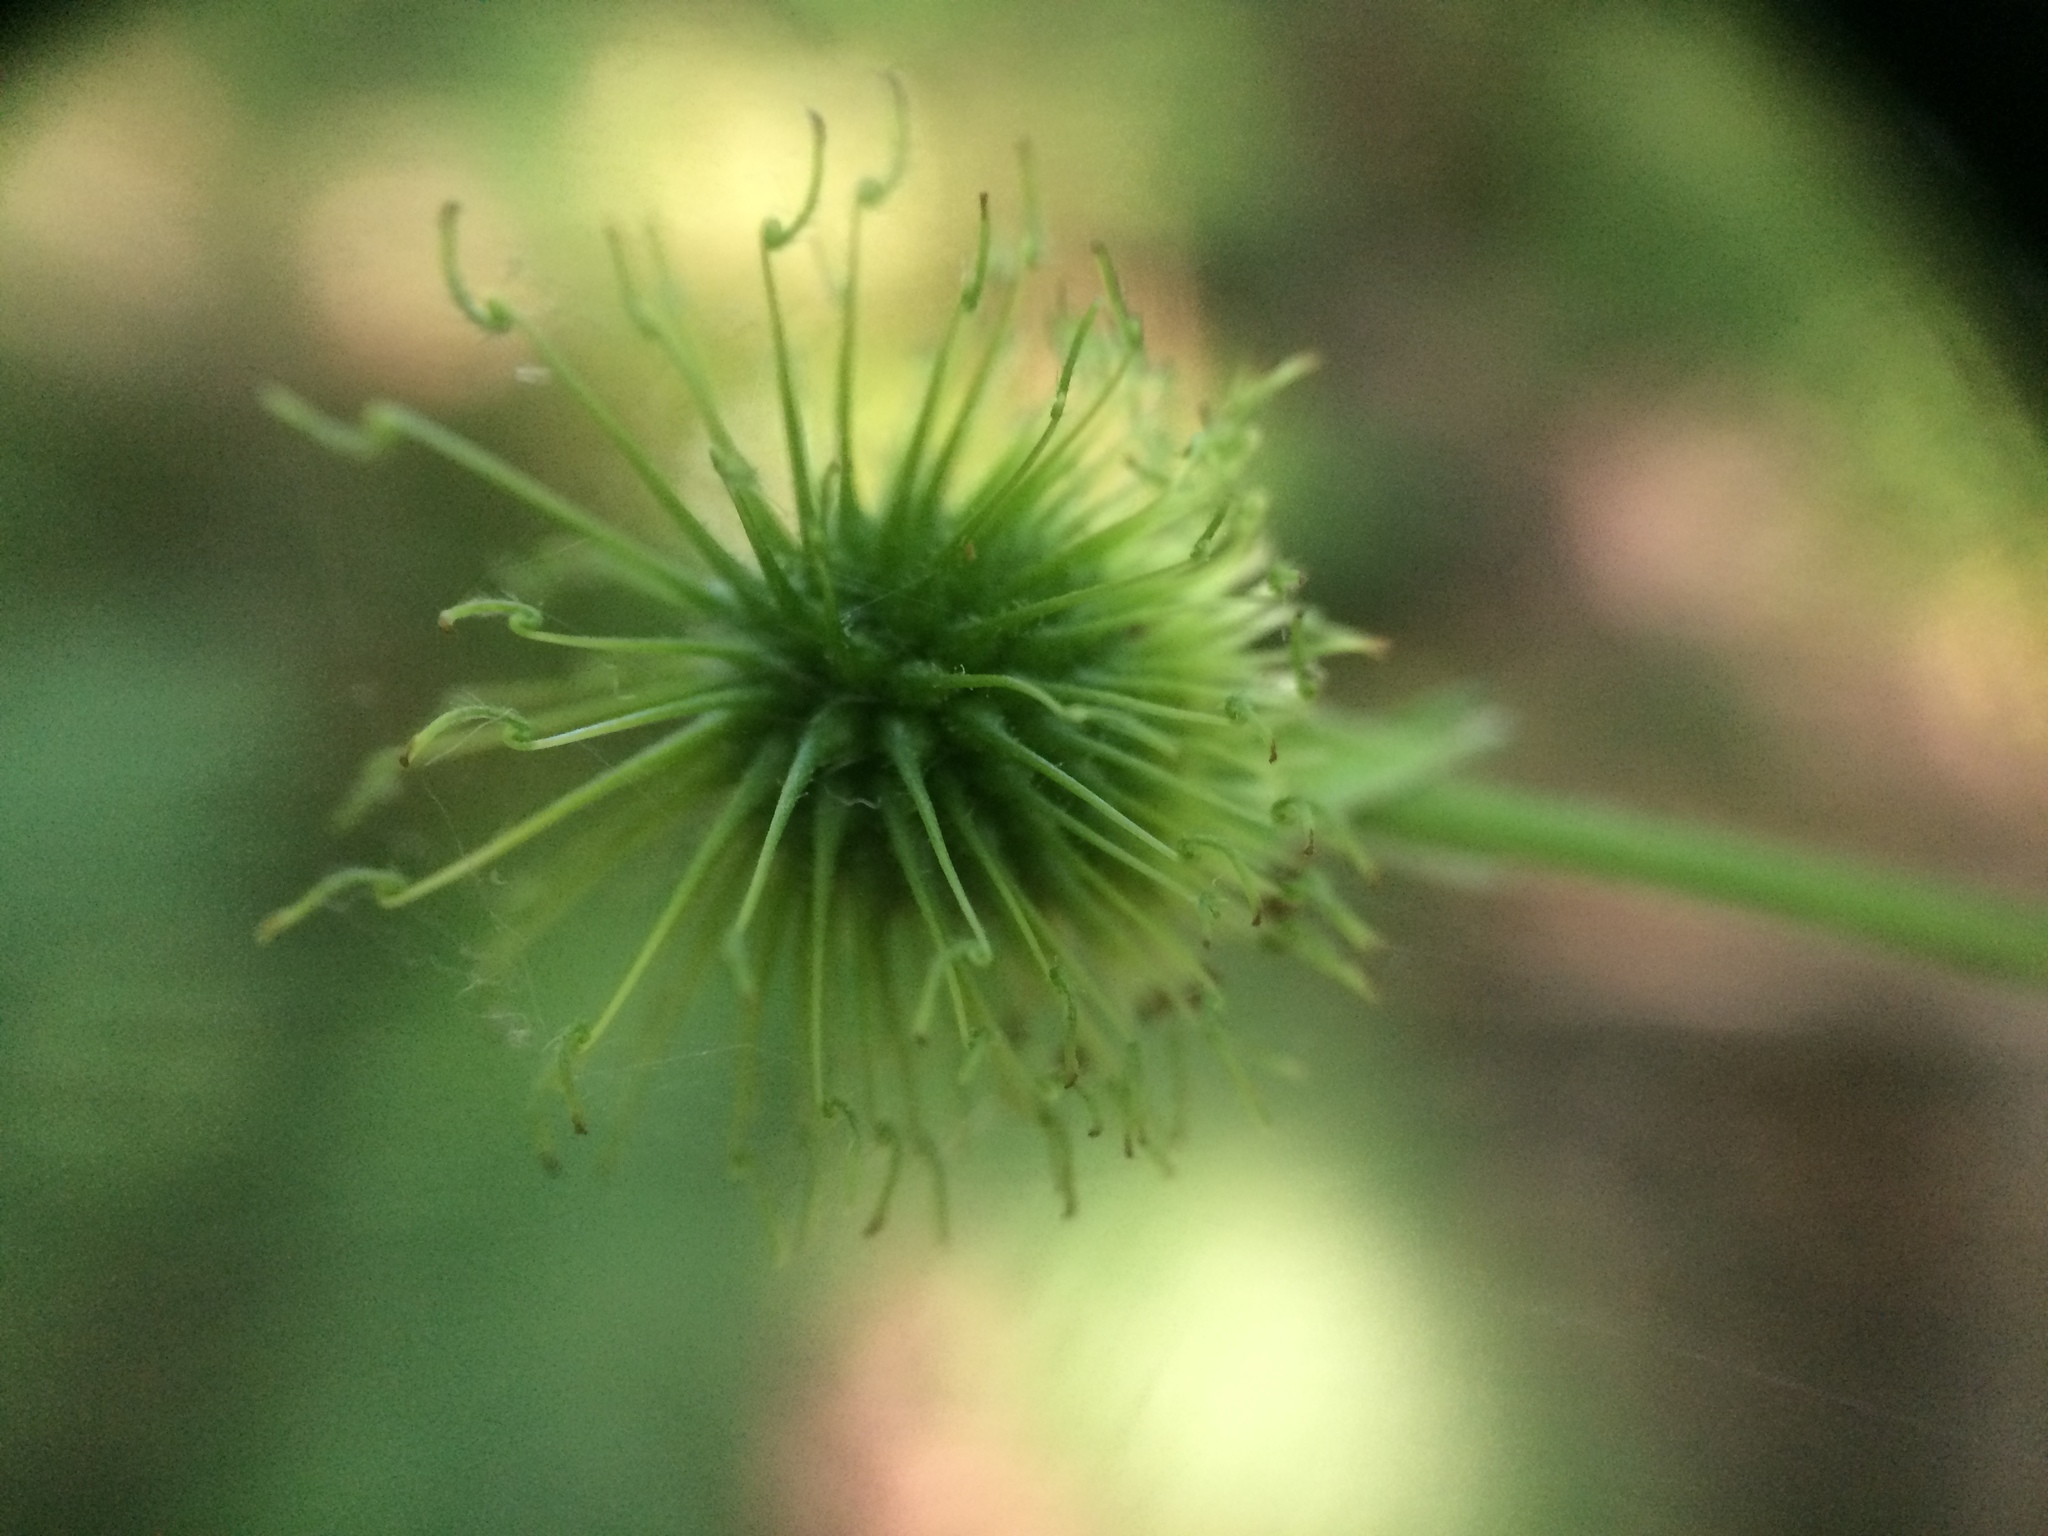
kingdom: Plantae
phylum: Tracheophyta
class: Magnoliopsida
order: Rosales
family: Rosaceae
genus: Geum
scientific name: Geum canadense
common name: White avens
